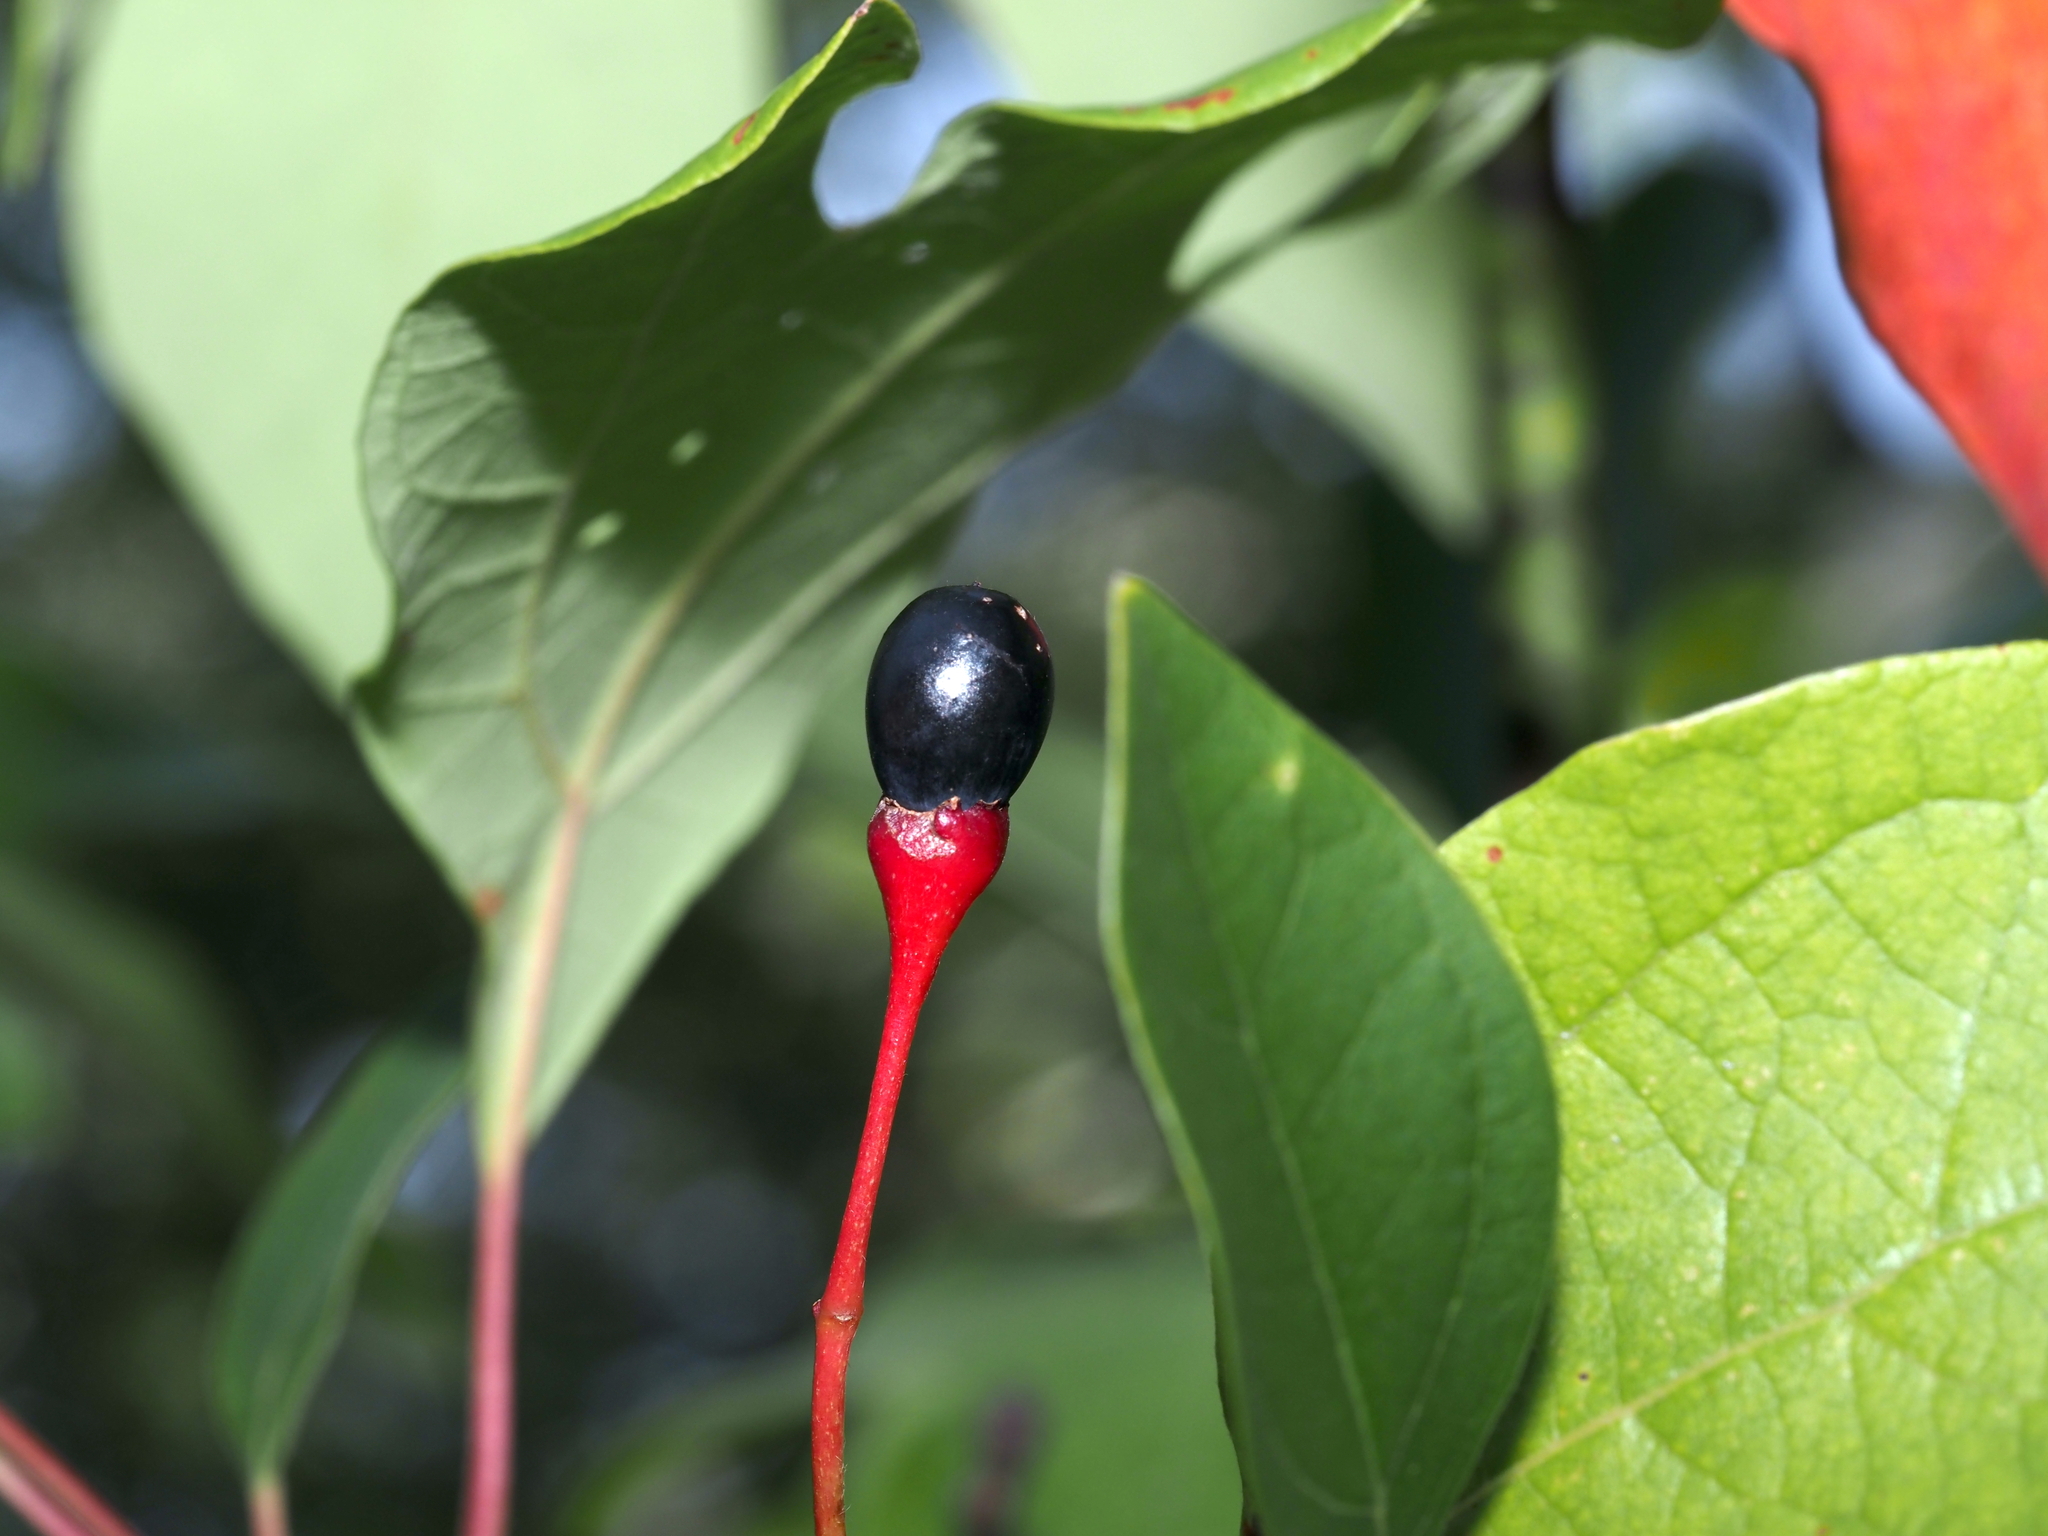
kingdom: Plantae
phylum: Tracheophyta
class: Magnoliopsida
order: Laurales
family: Lauraceae
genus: Sassafras
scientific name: Sassafras albidum
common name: Sassafras
